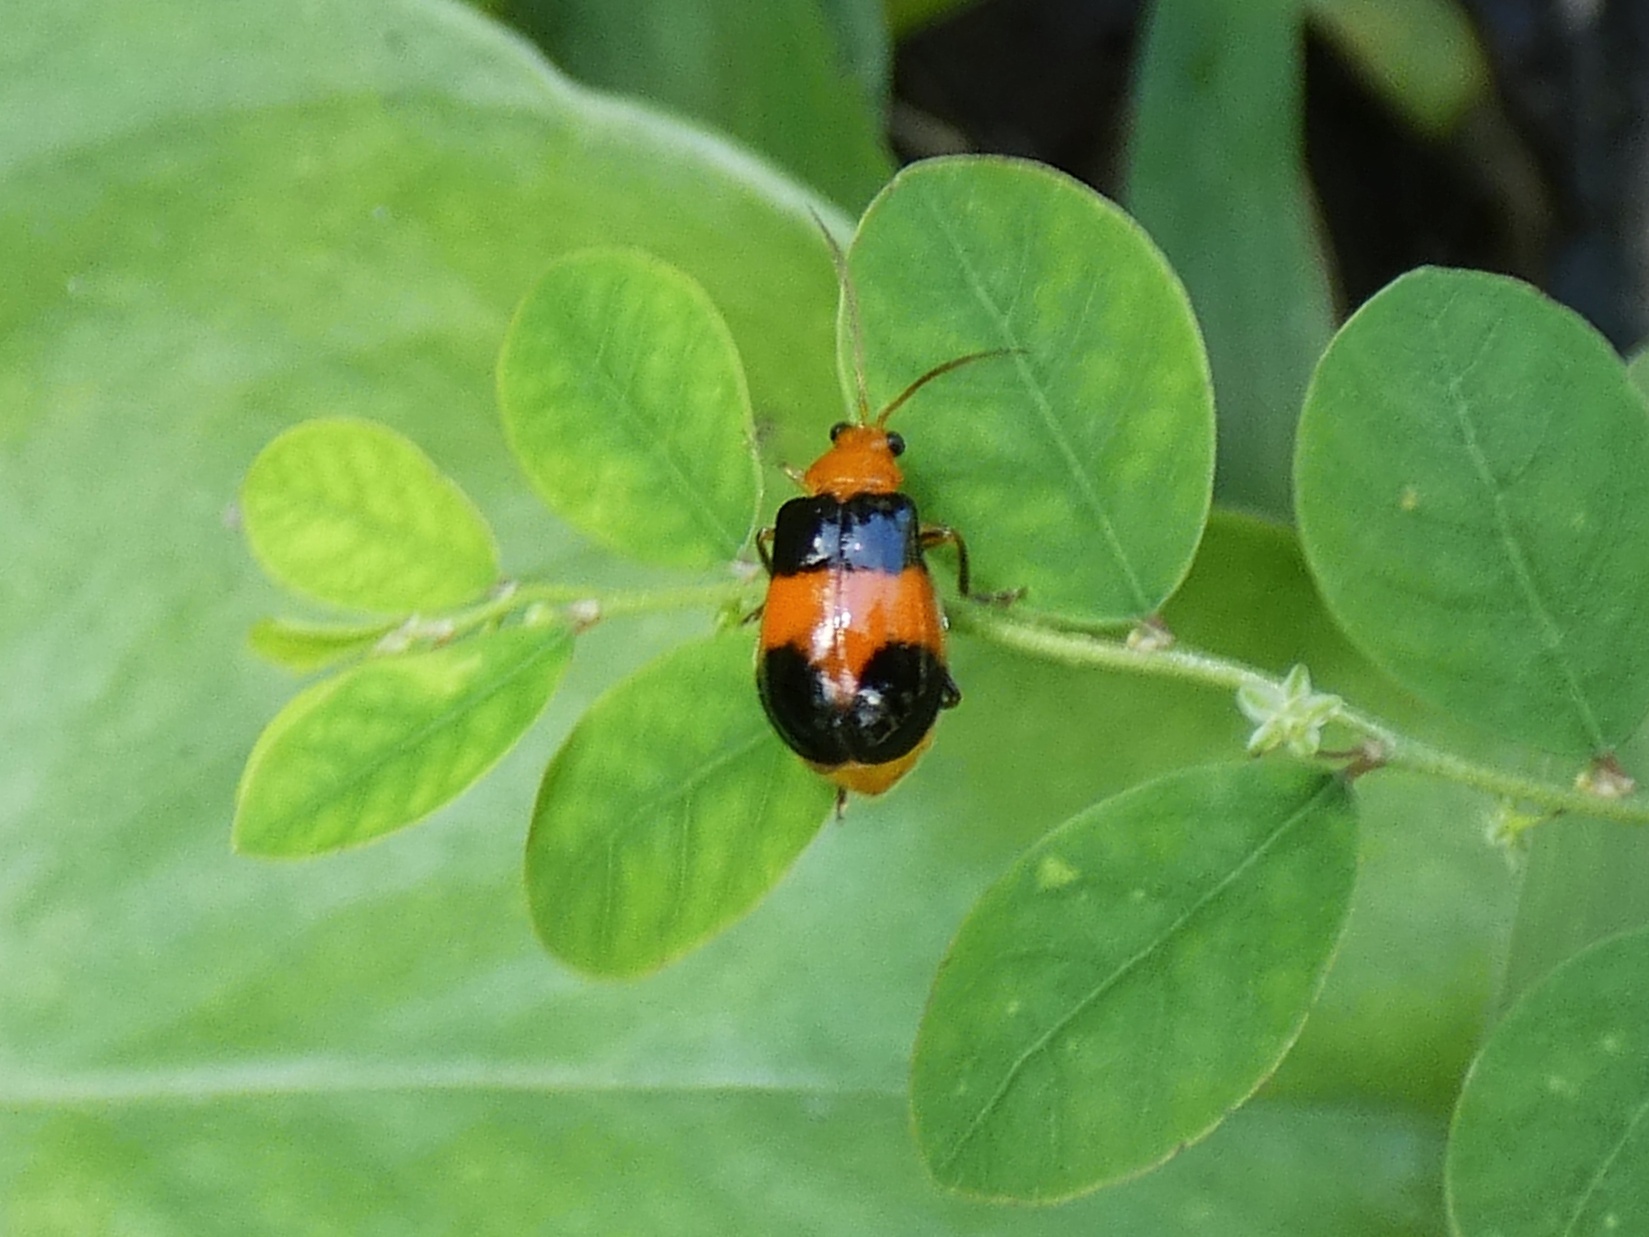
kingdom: Animalia
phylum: Arthropoda
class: Insecta
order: Coleoptera
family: Chrysomelidae
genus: Aulacophora
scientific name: Aulacophora
